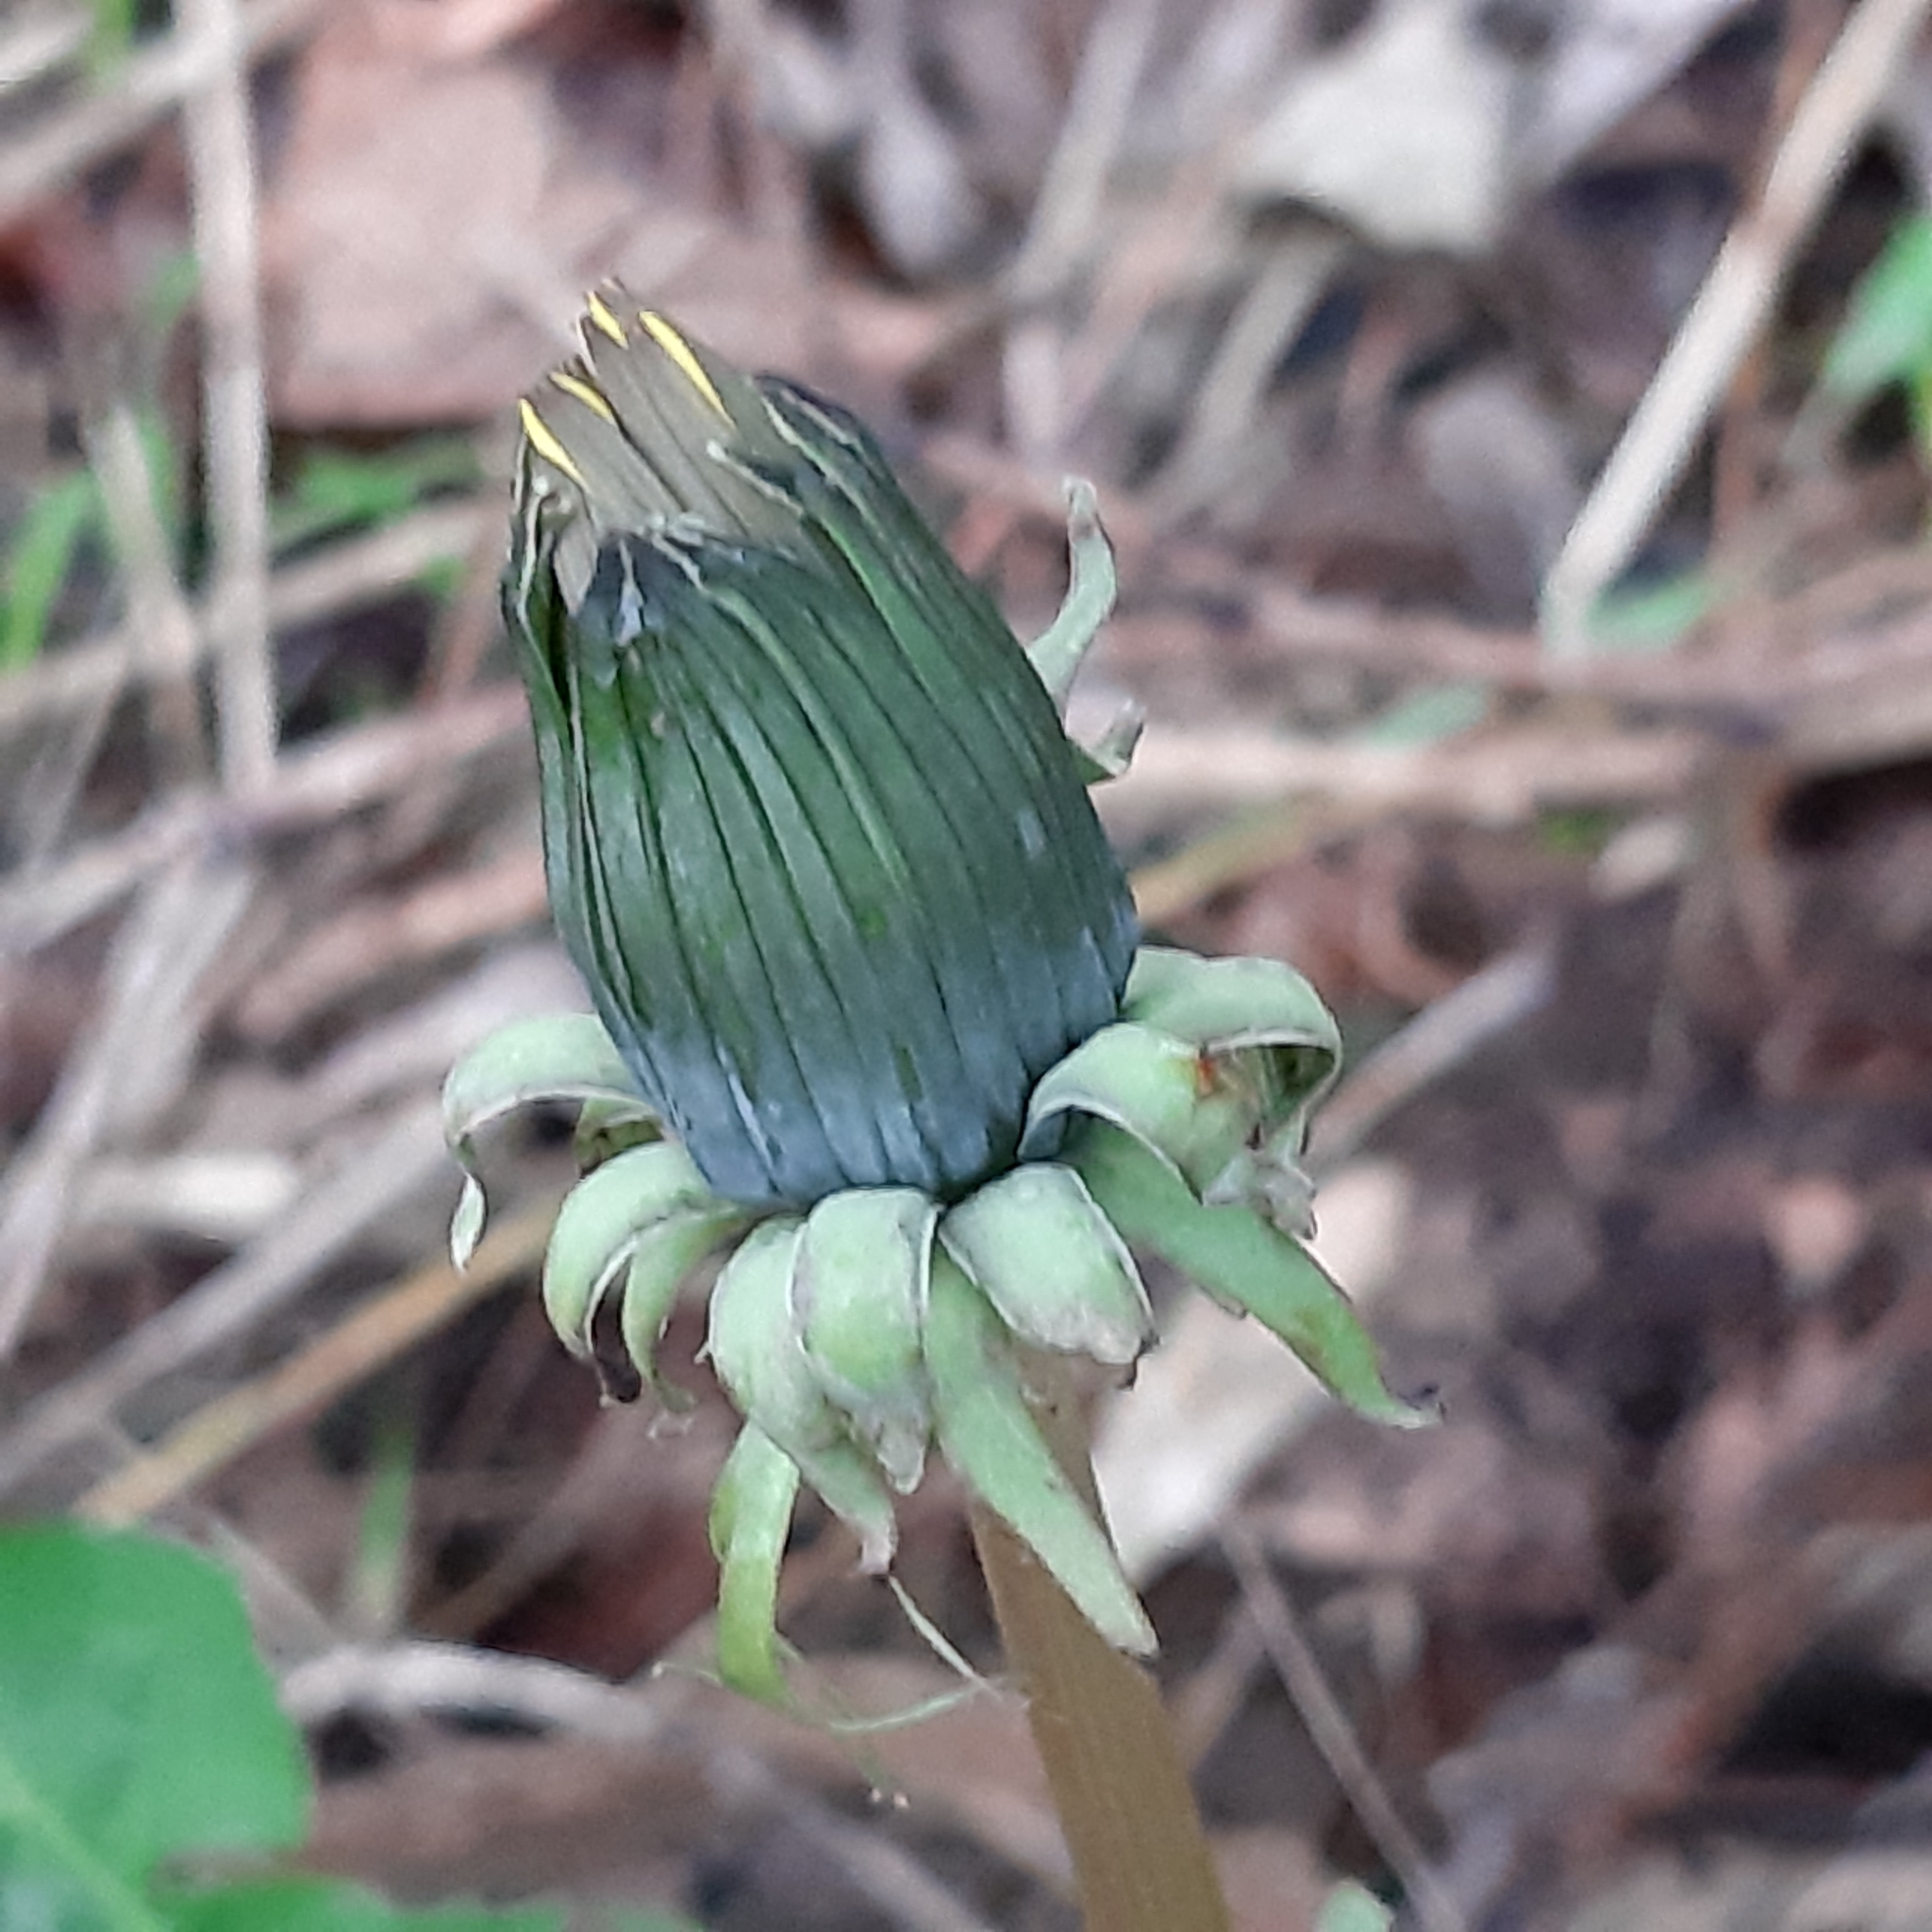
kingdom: Plantae
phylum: Tracheophyta
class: Magnoliopsida
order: Asterales
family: Asteraceae
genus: Taraxacum
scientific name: Taraxacum officinale
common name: Common dandelion
